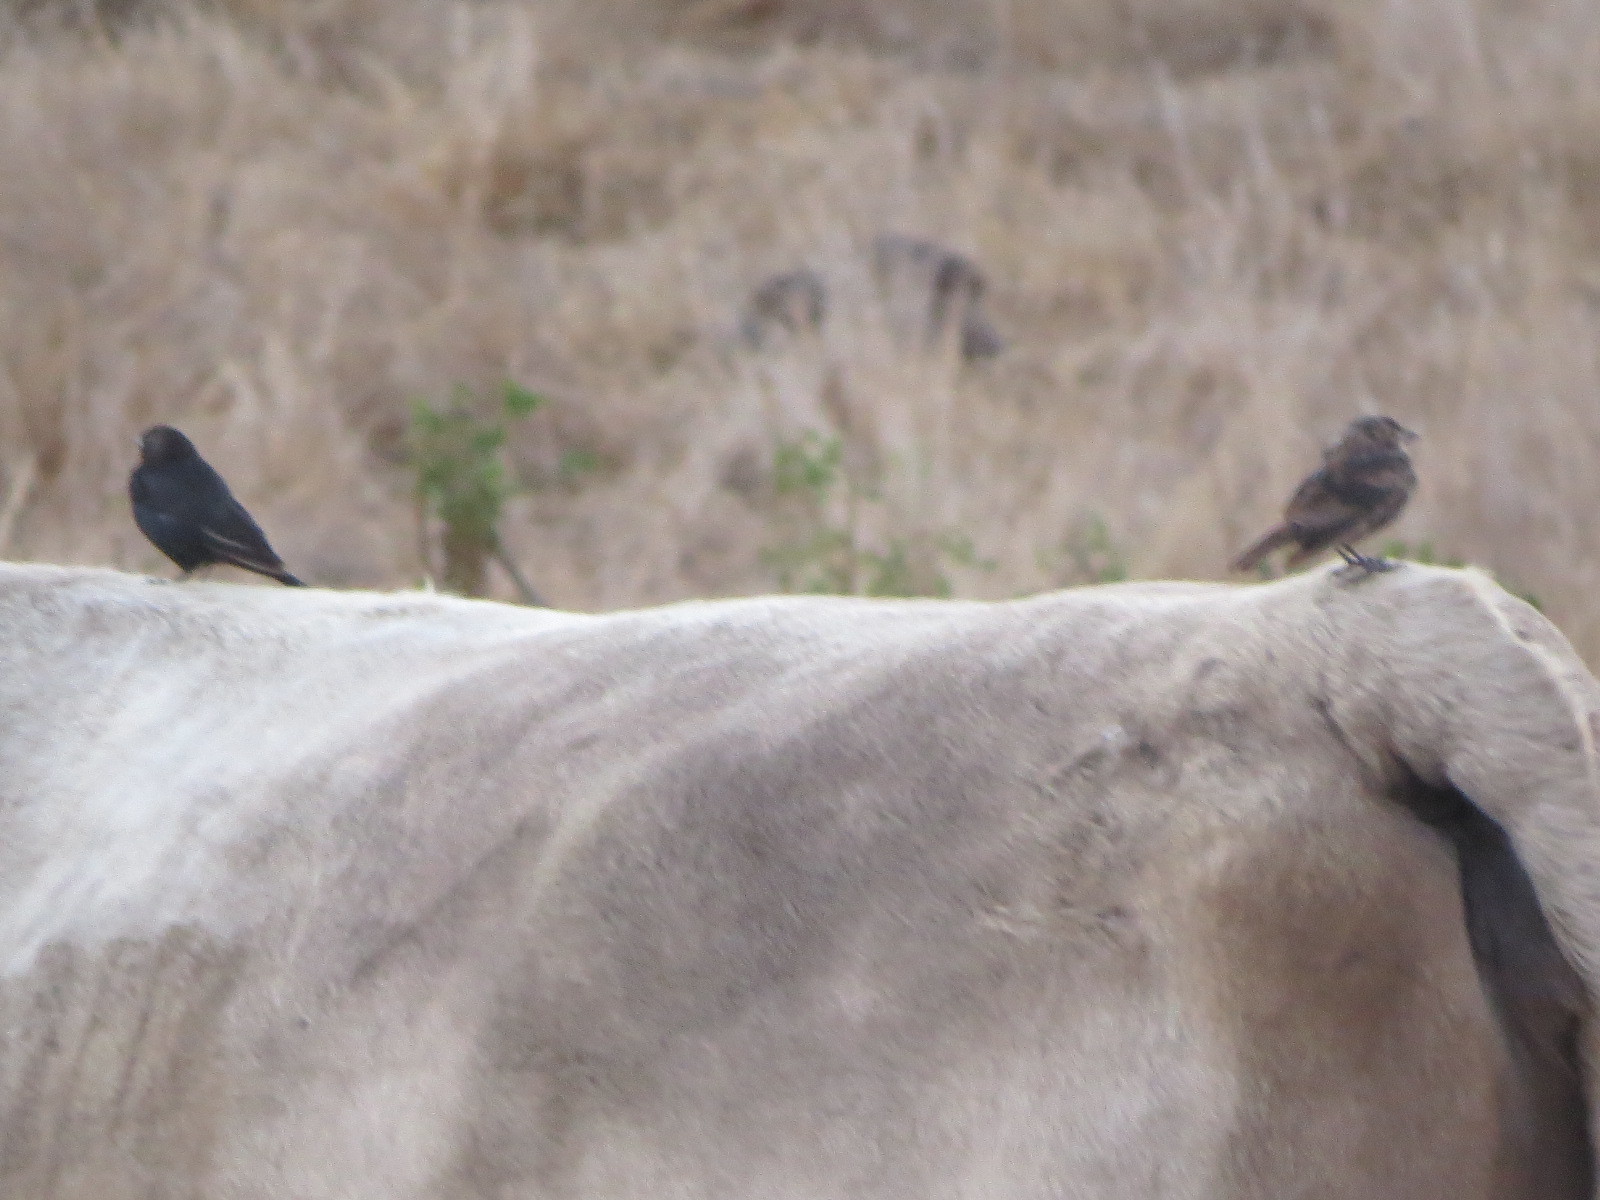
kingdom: Animalia
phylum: Chordata
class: Aves
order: Passeriformes
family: Icteridae
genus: Molothrus
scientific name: Molothrus ater
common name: Brown-headed cowbird
